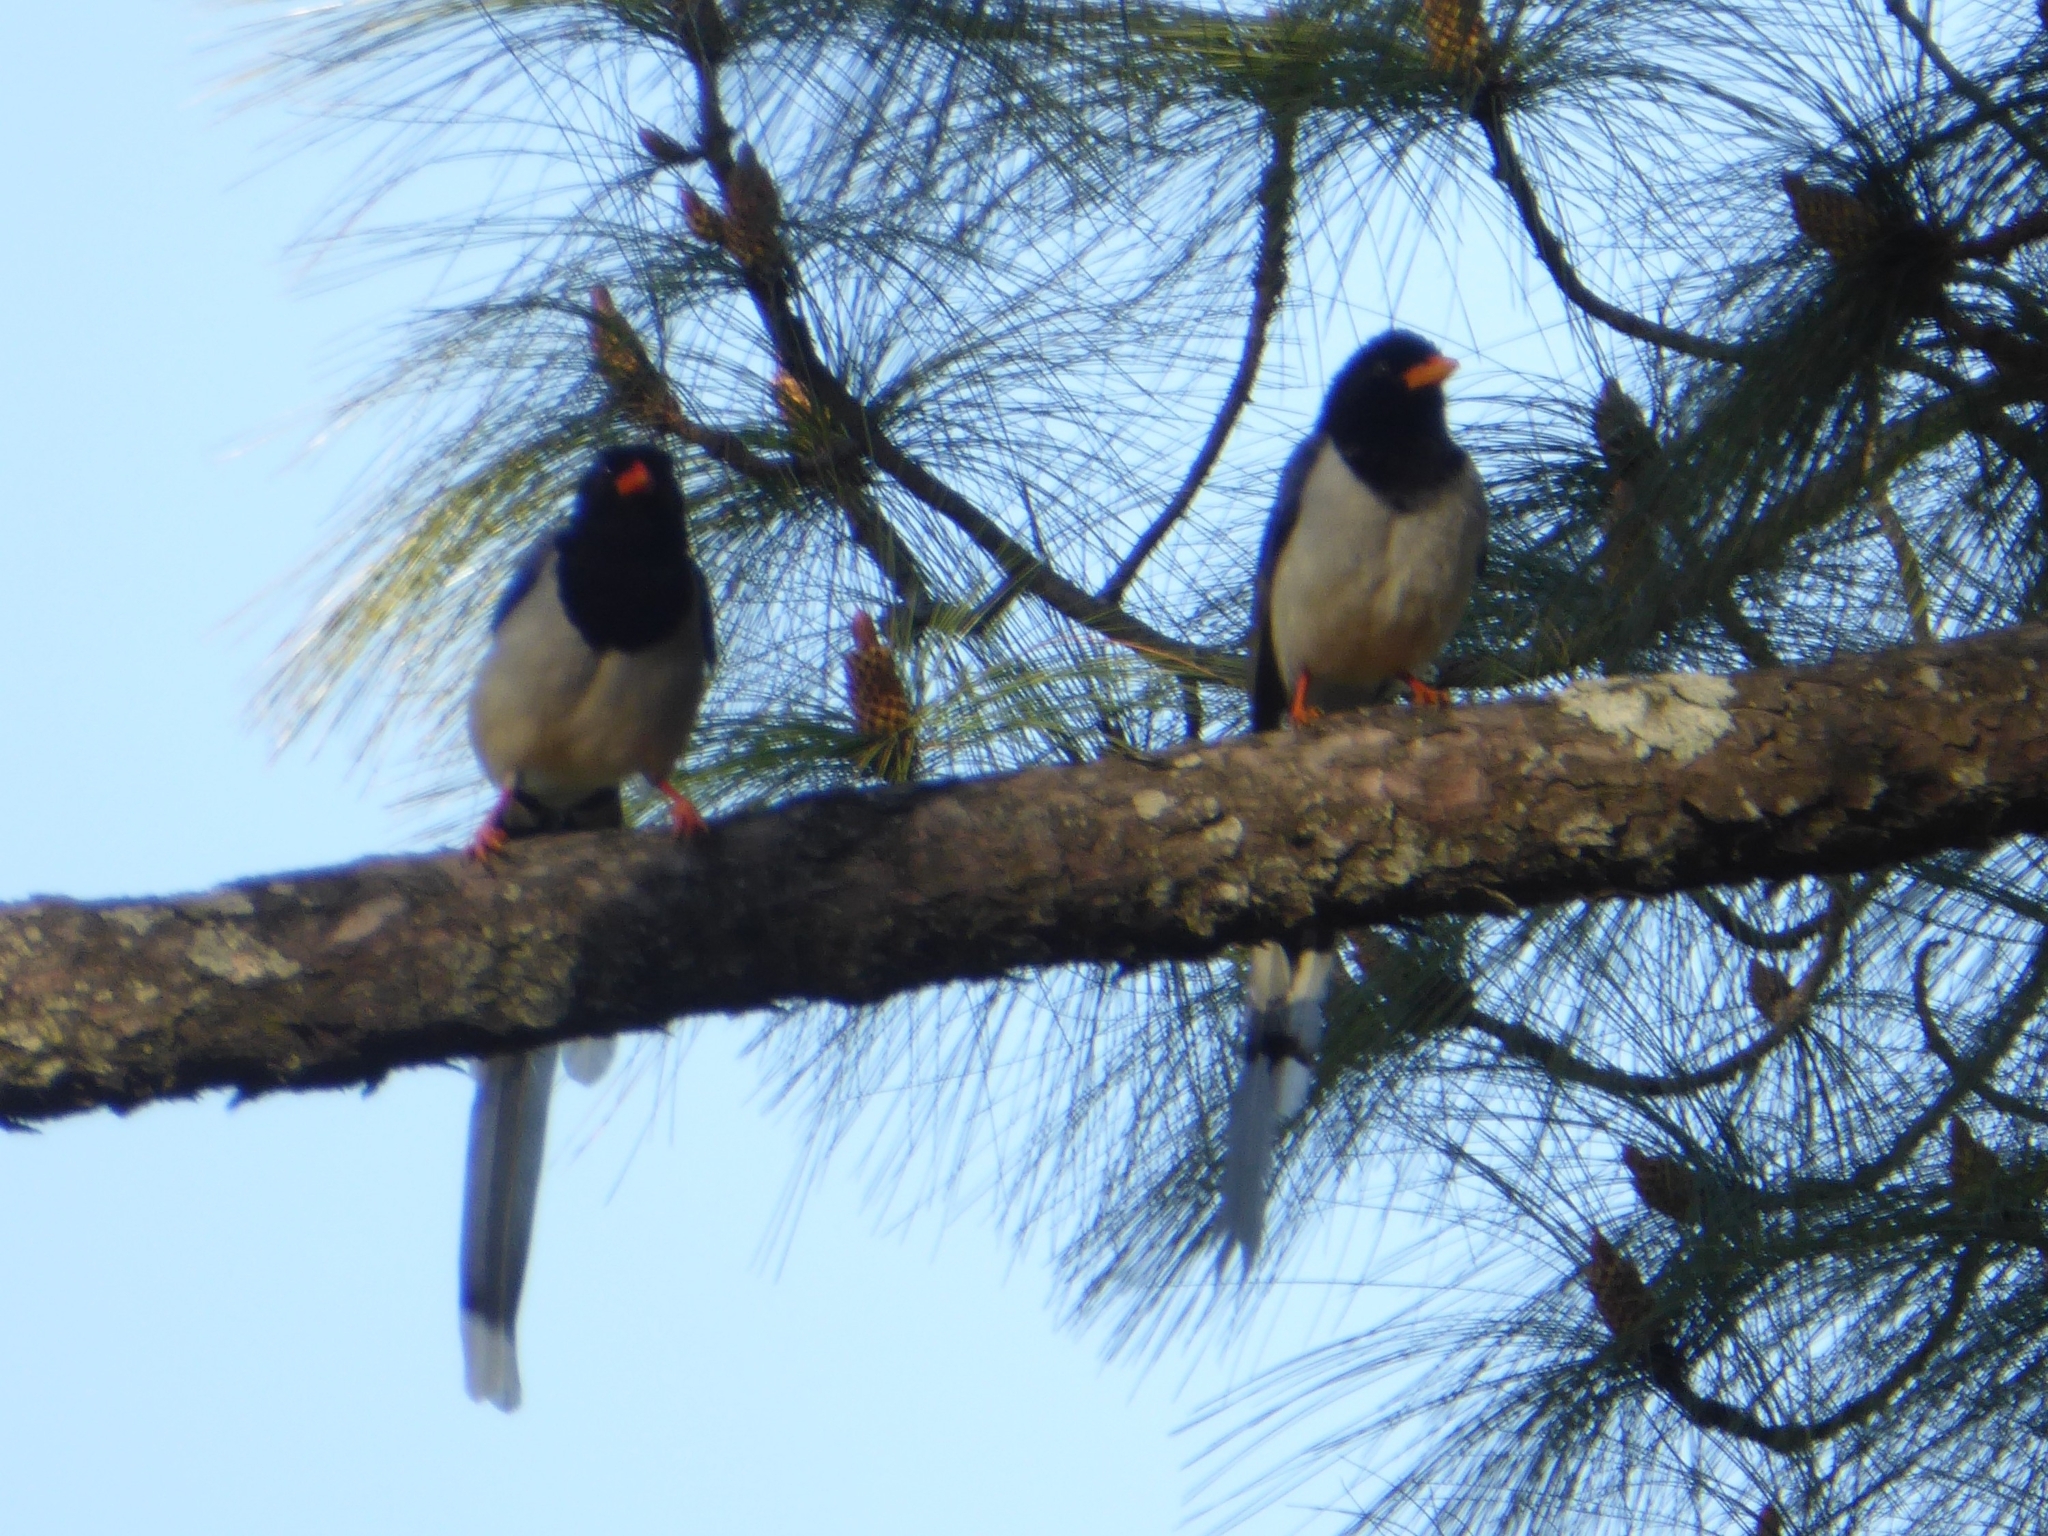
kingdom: Animalia
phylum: Chordata
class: Aves
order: Passeriformes
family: Corvidae
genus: Urocissa
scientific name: Urocissa erythroryncha
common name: Red-billed blue magpie
